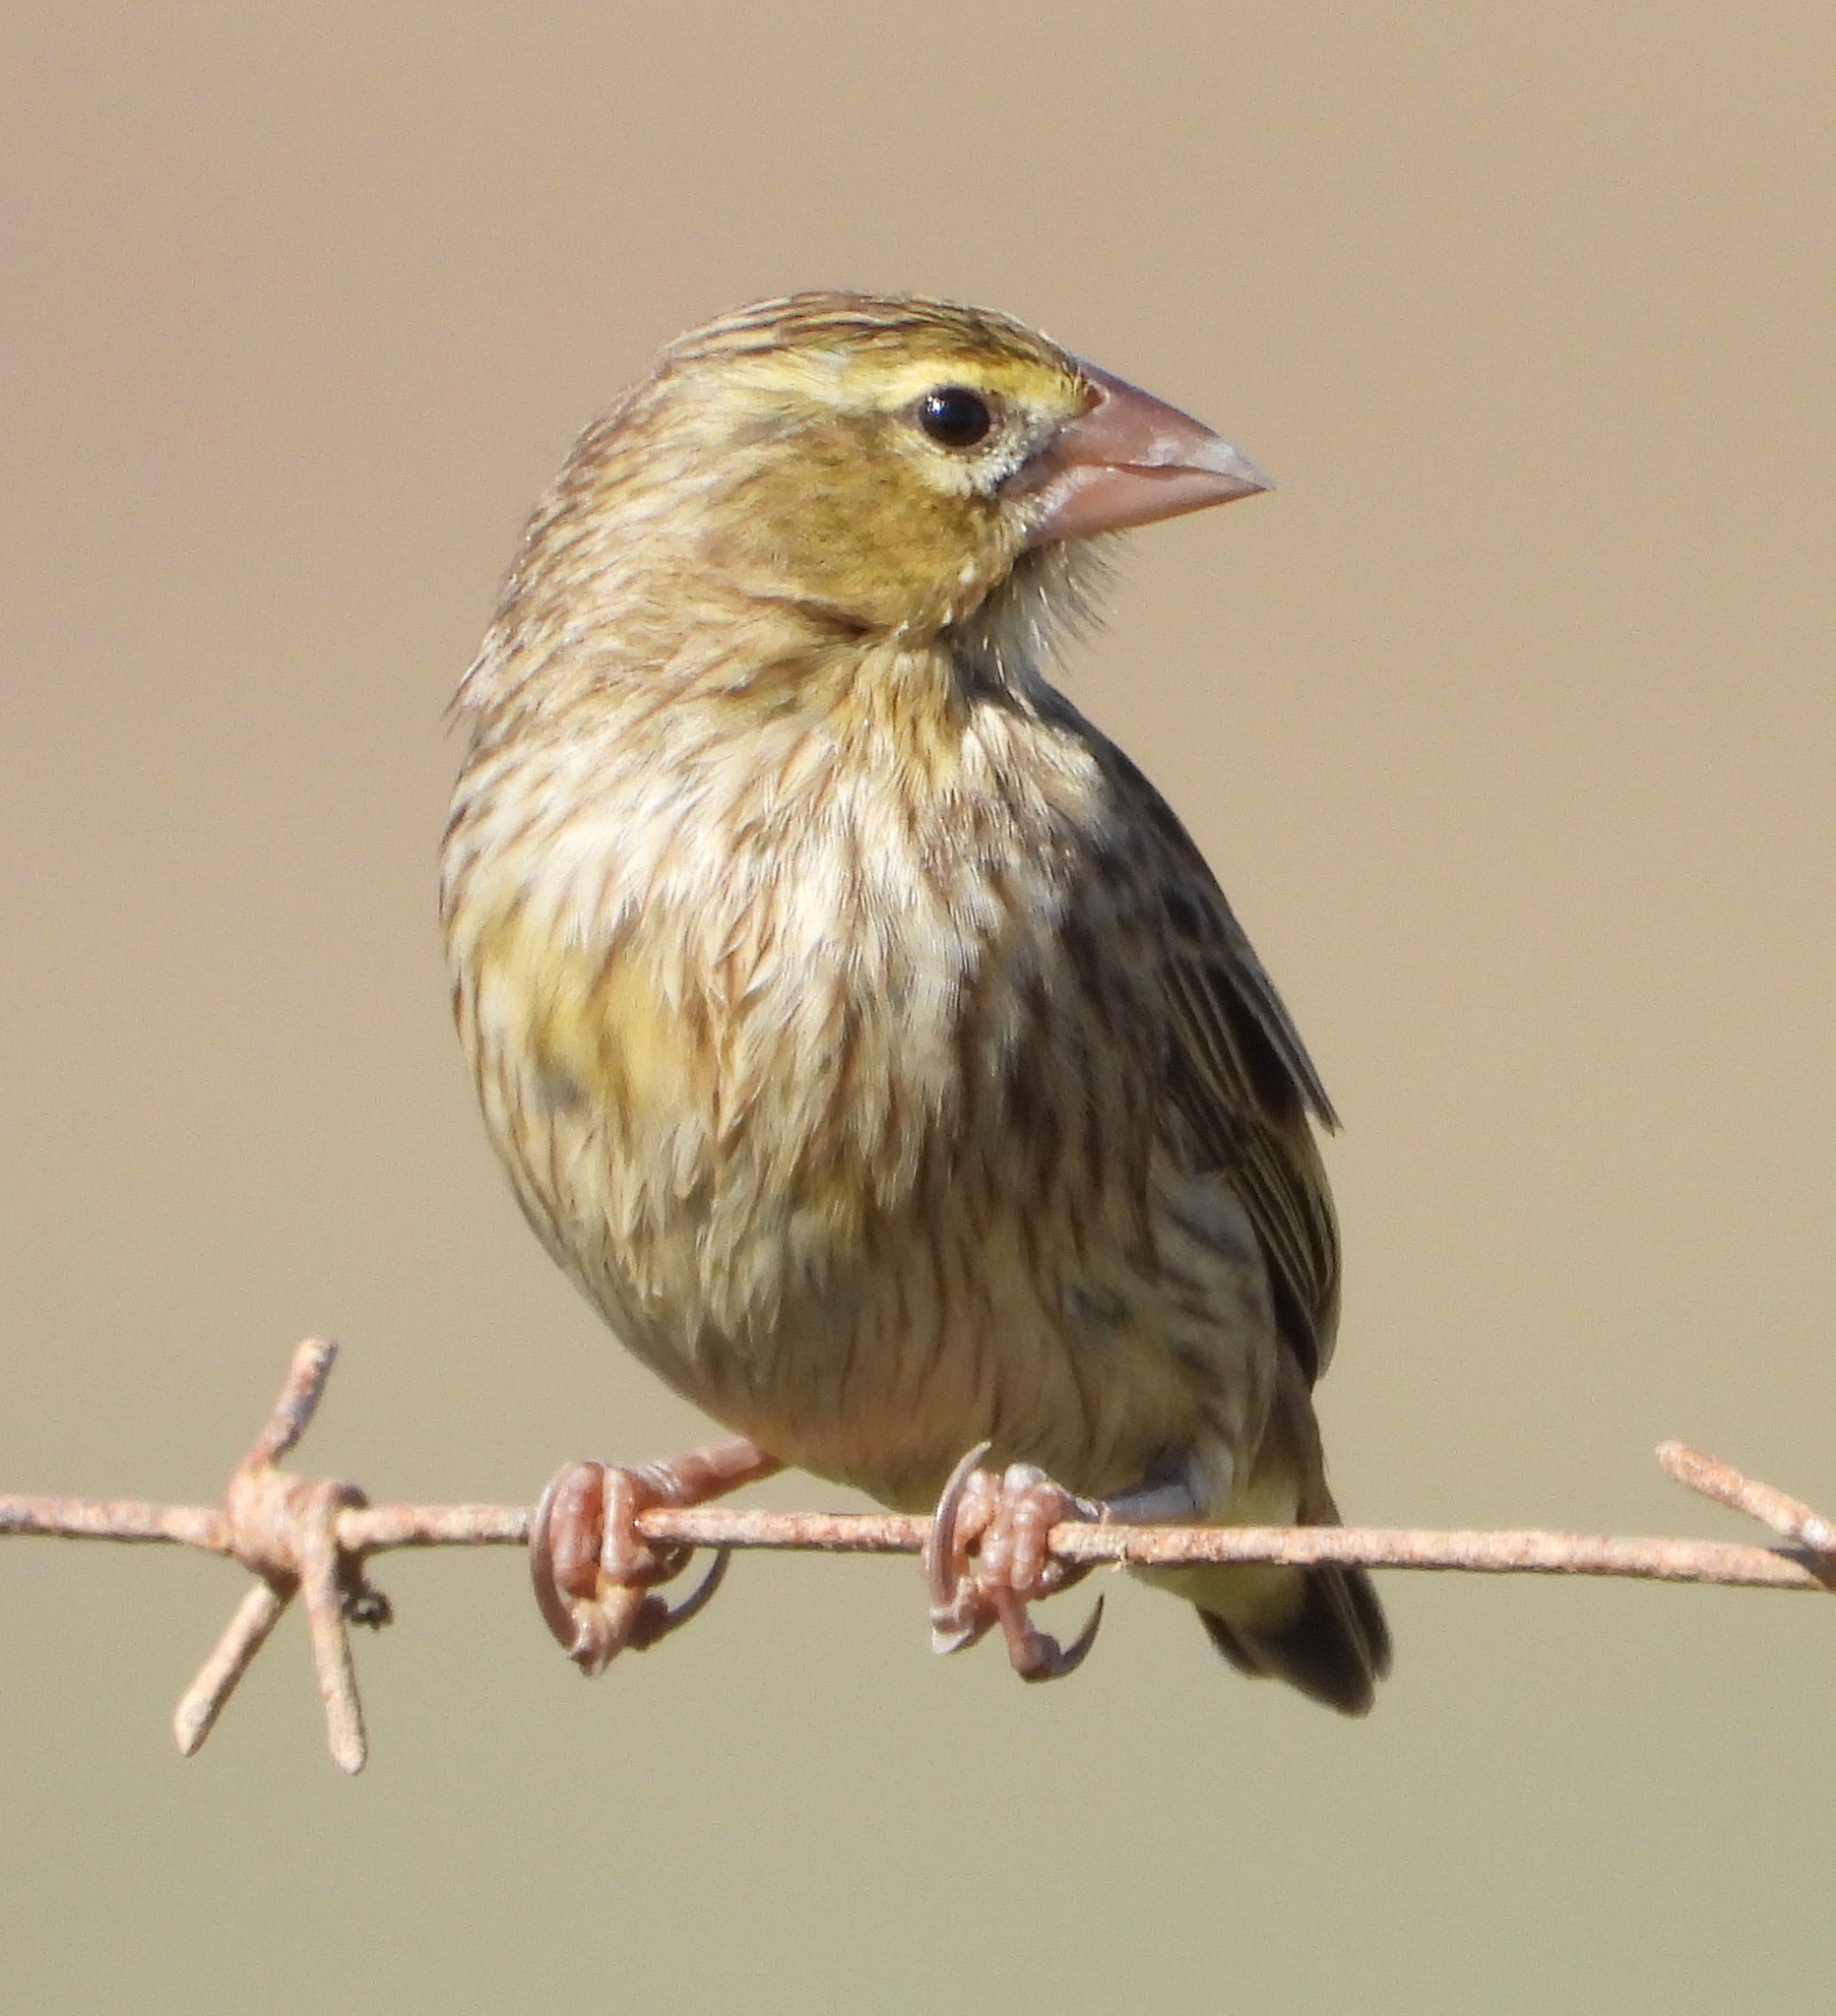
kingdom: Animalia
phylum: Chordata
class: Aves
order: Passeriformes
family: Ploceidae
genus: Euplectes
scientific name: Euplectes orix
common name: Southern red bishop
